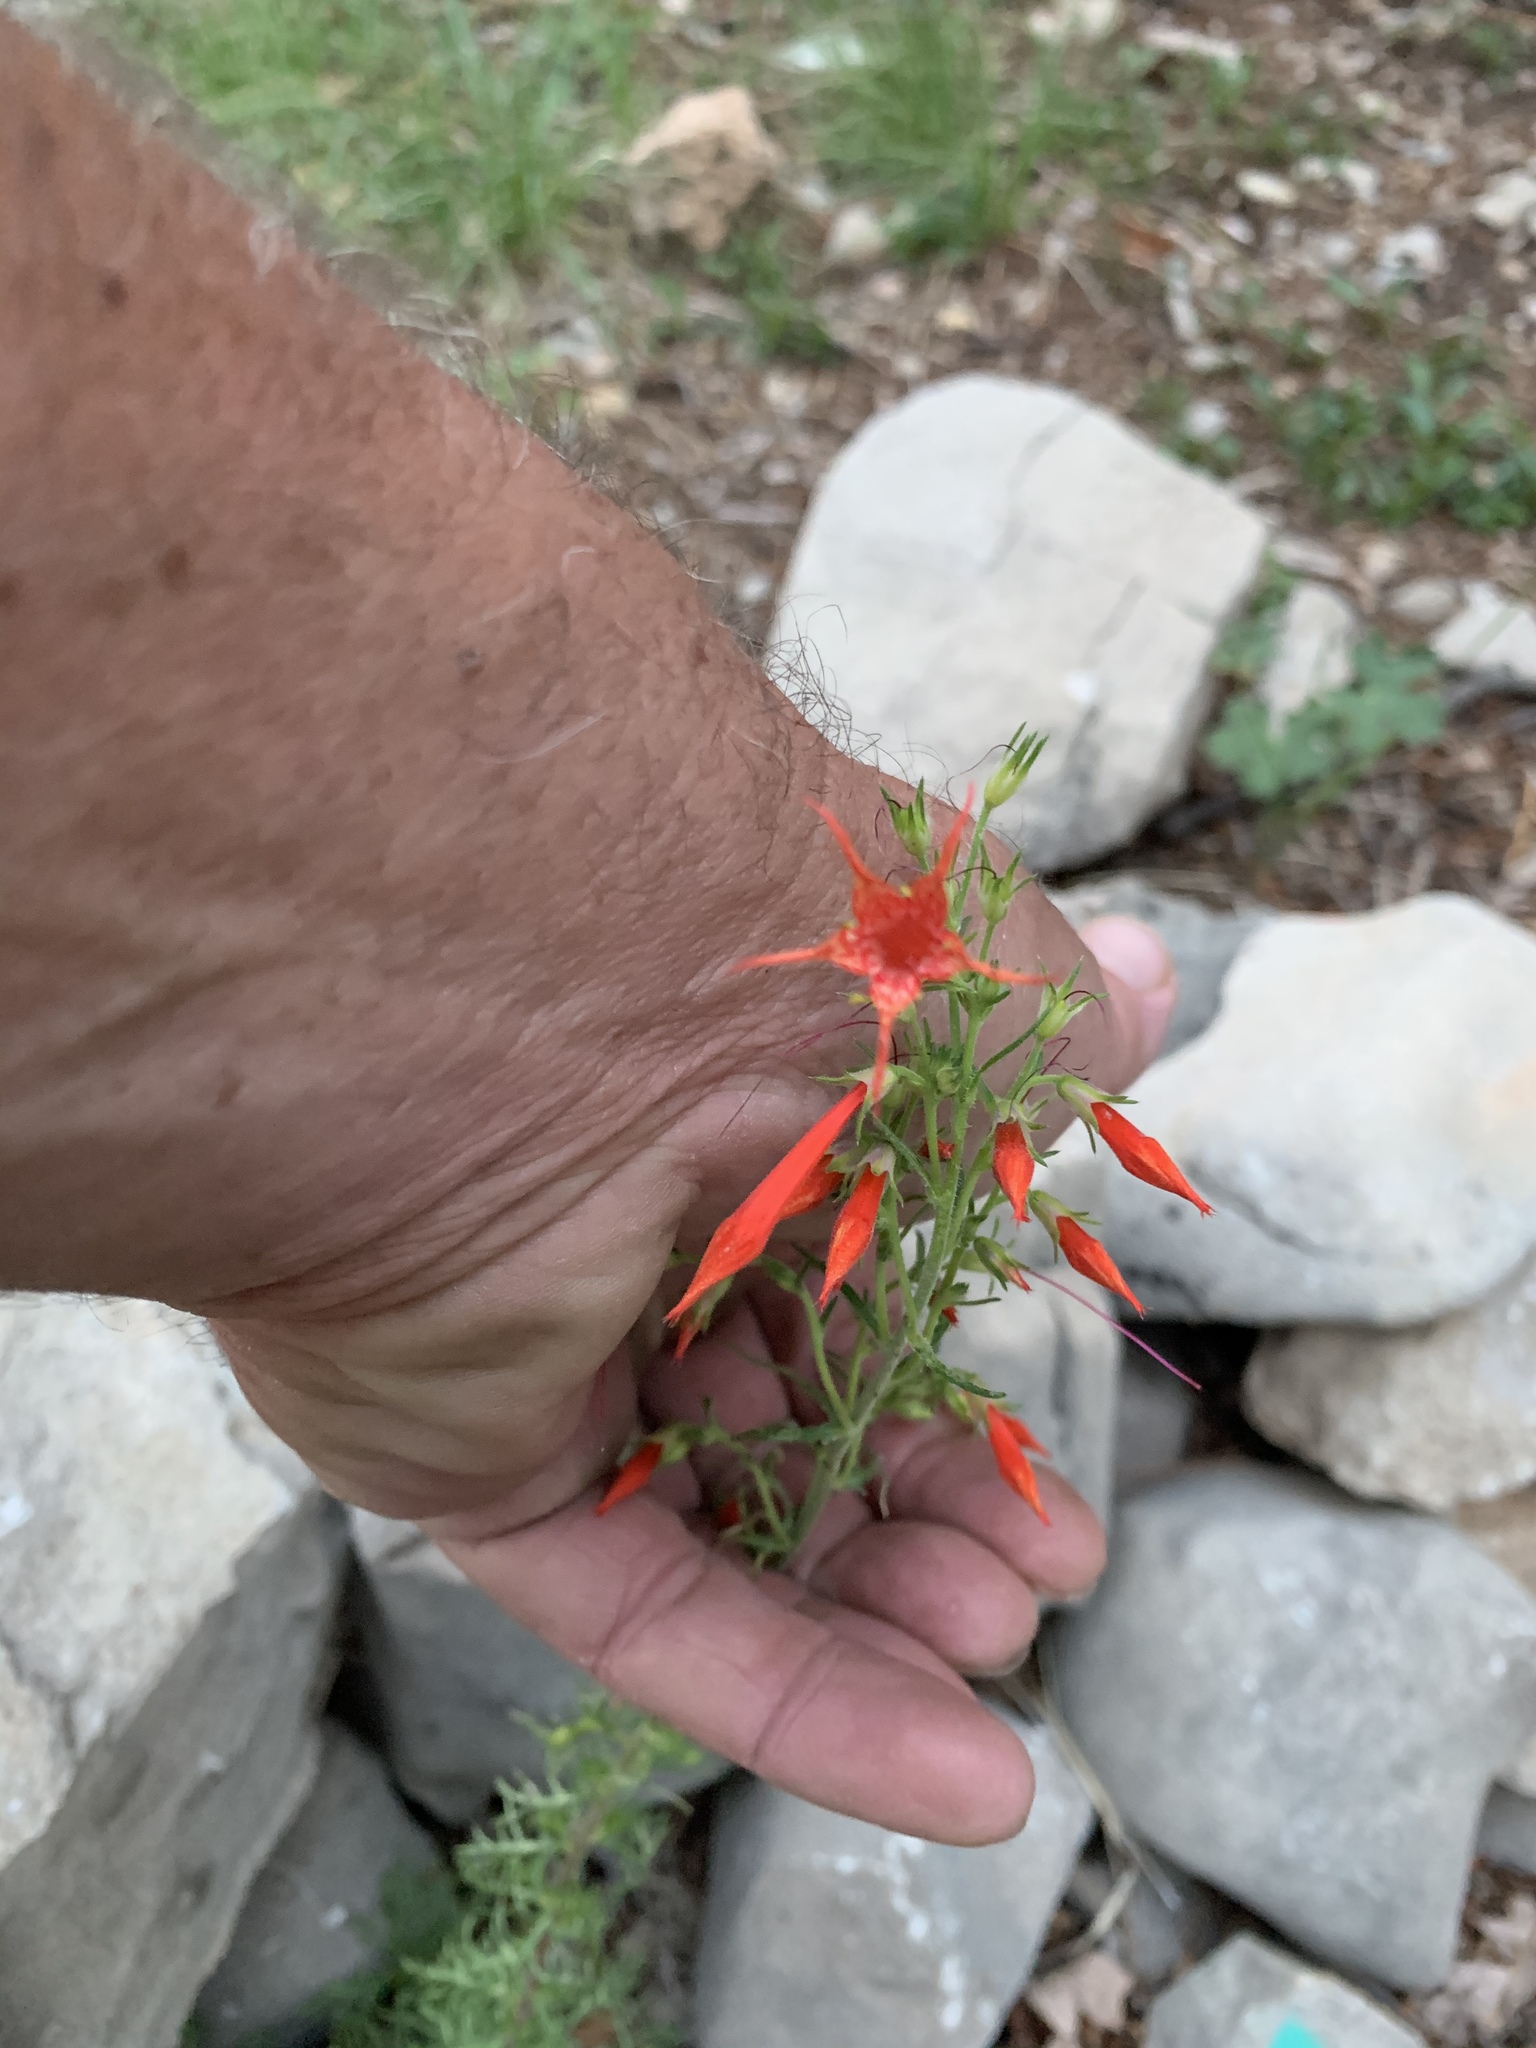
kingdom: Plantae
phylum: Tracheophyta
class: Magnoliopsida
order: Ericales
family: Polemoniaceae
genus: Ipomopsis
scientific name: Ipomopsis aggregata
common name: Scarlet gilia
